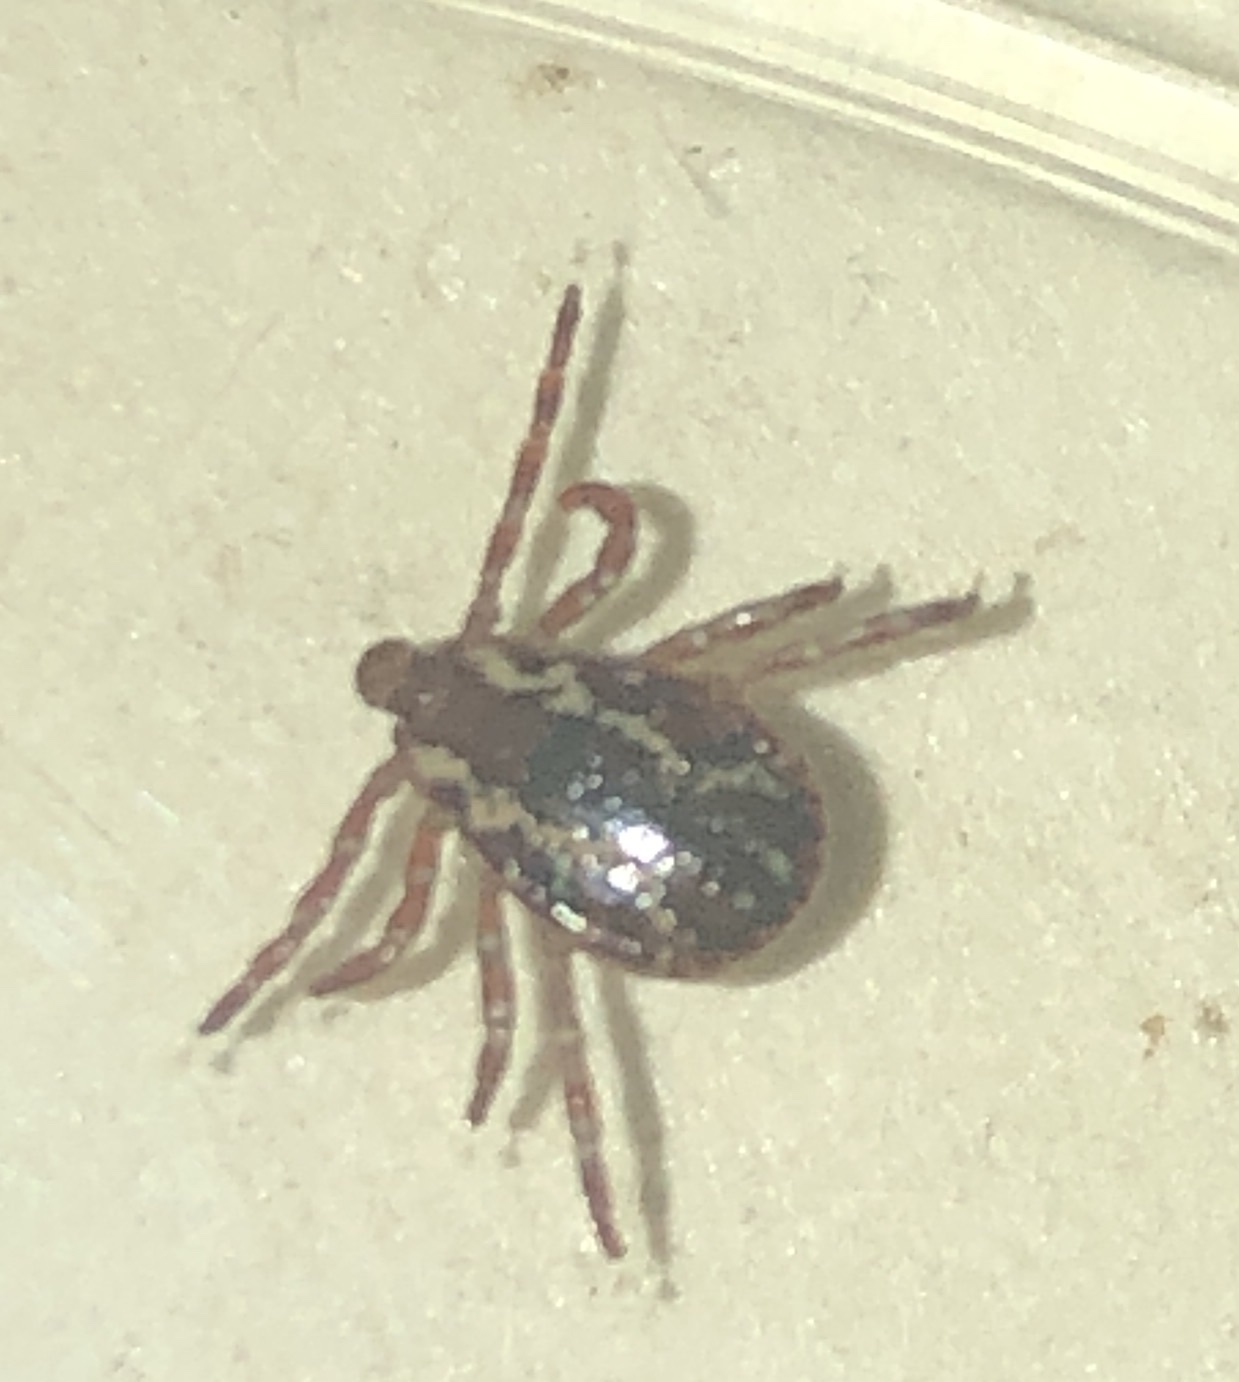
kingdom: Animalia
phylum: Arthropoda
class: Arachnida
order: Ixodida
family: Ixodidae
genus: Dermacentor
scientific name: Dermacentor variabilis
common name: American dog tick
